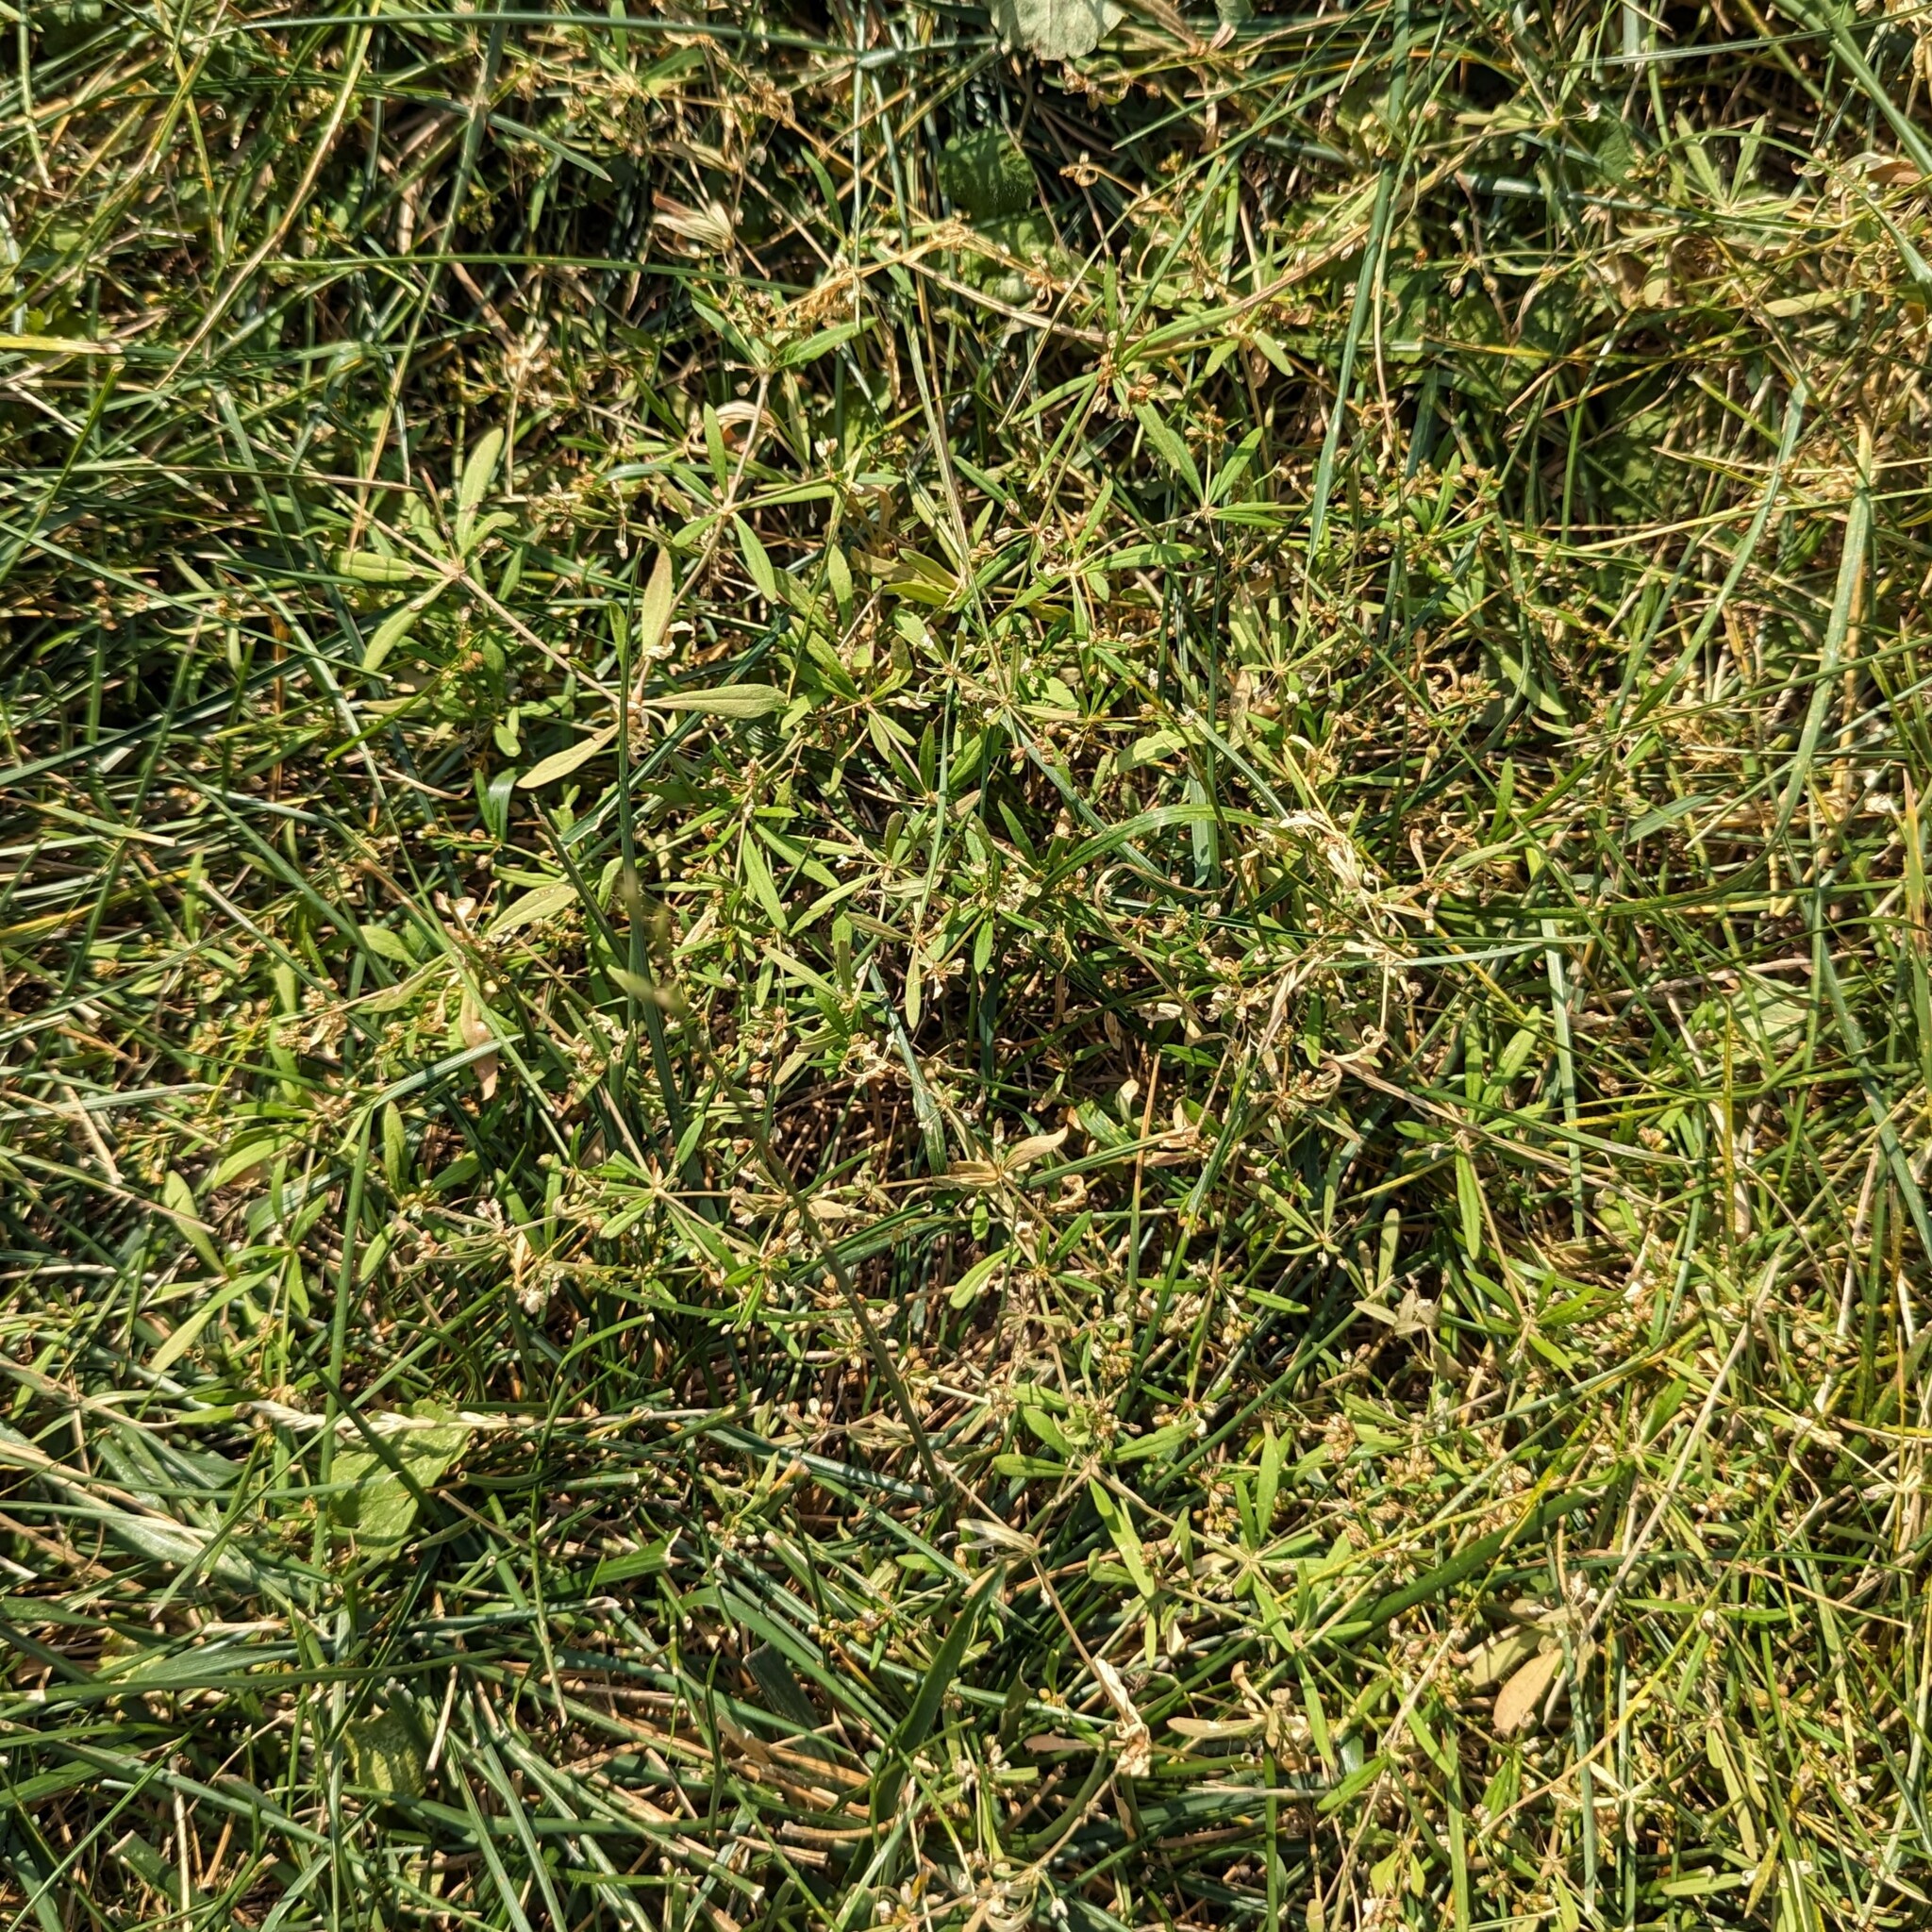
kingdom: Plantae
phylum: Tracheophyta
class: Magnoliopsida
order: Caryophyllales
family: Molluginaceae
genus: Mollugo
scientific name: Mollugo verticillata
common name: Green carpetweed
